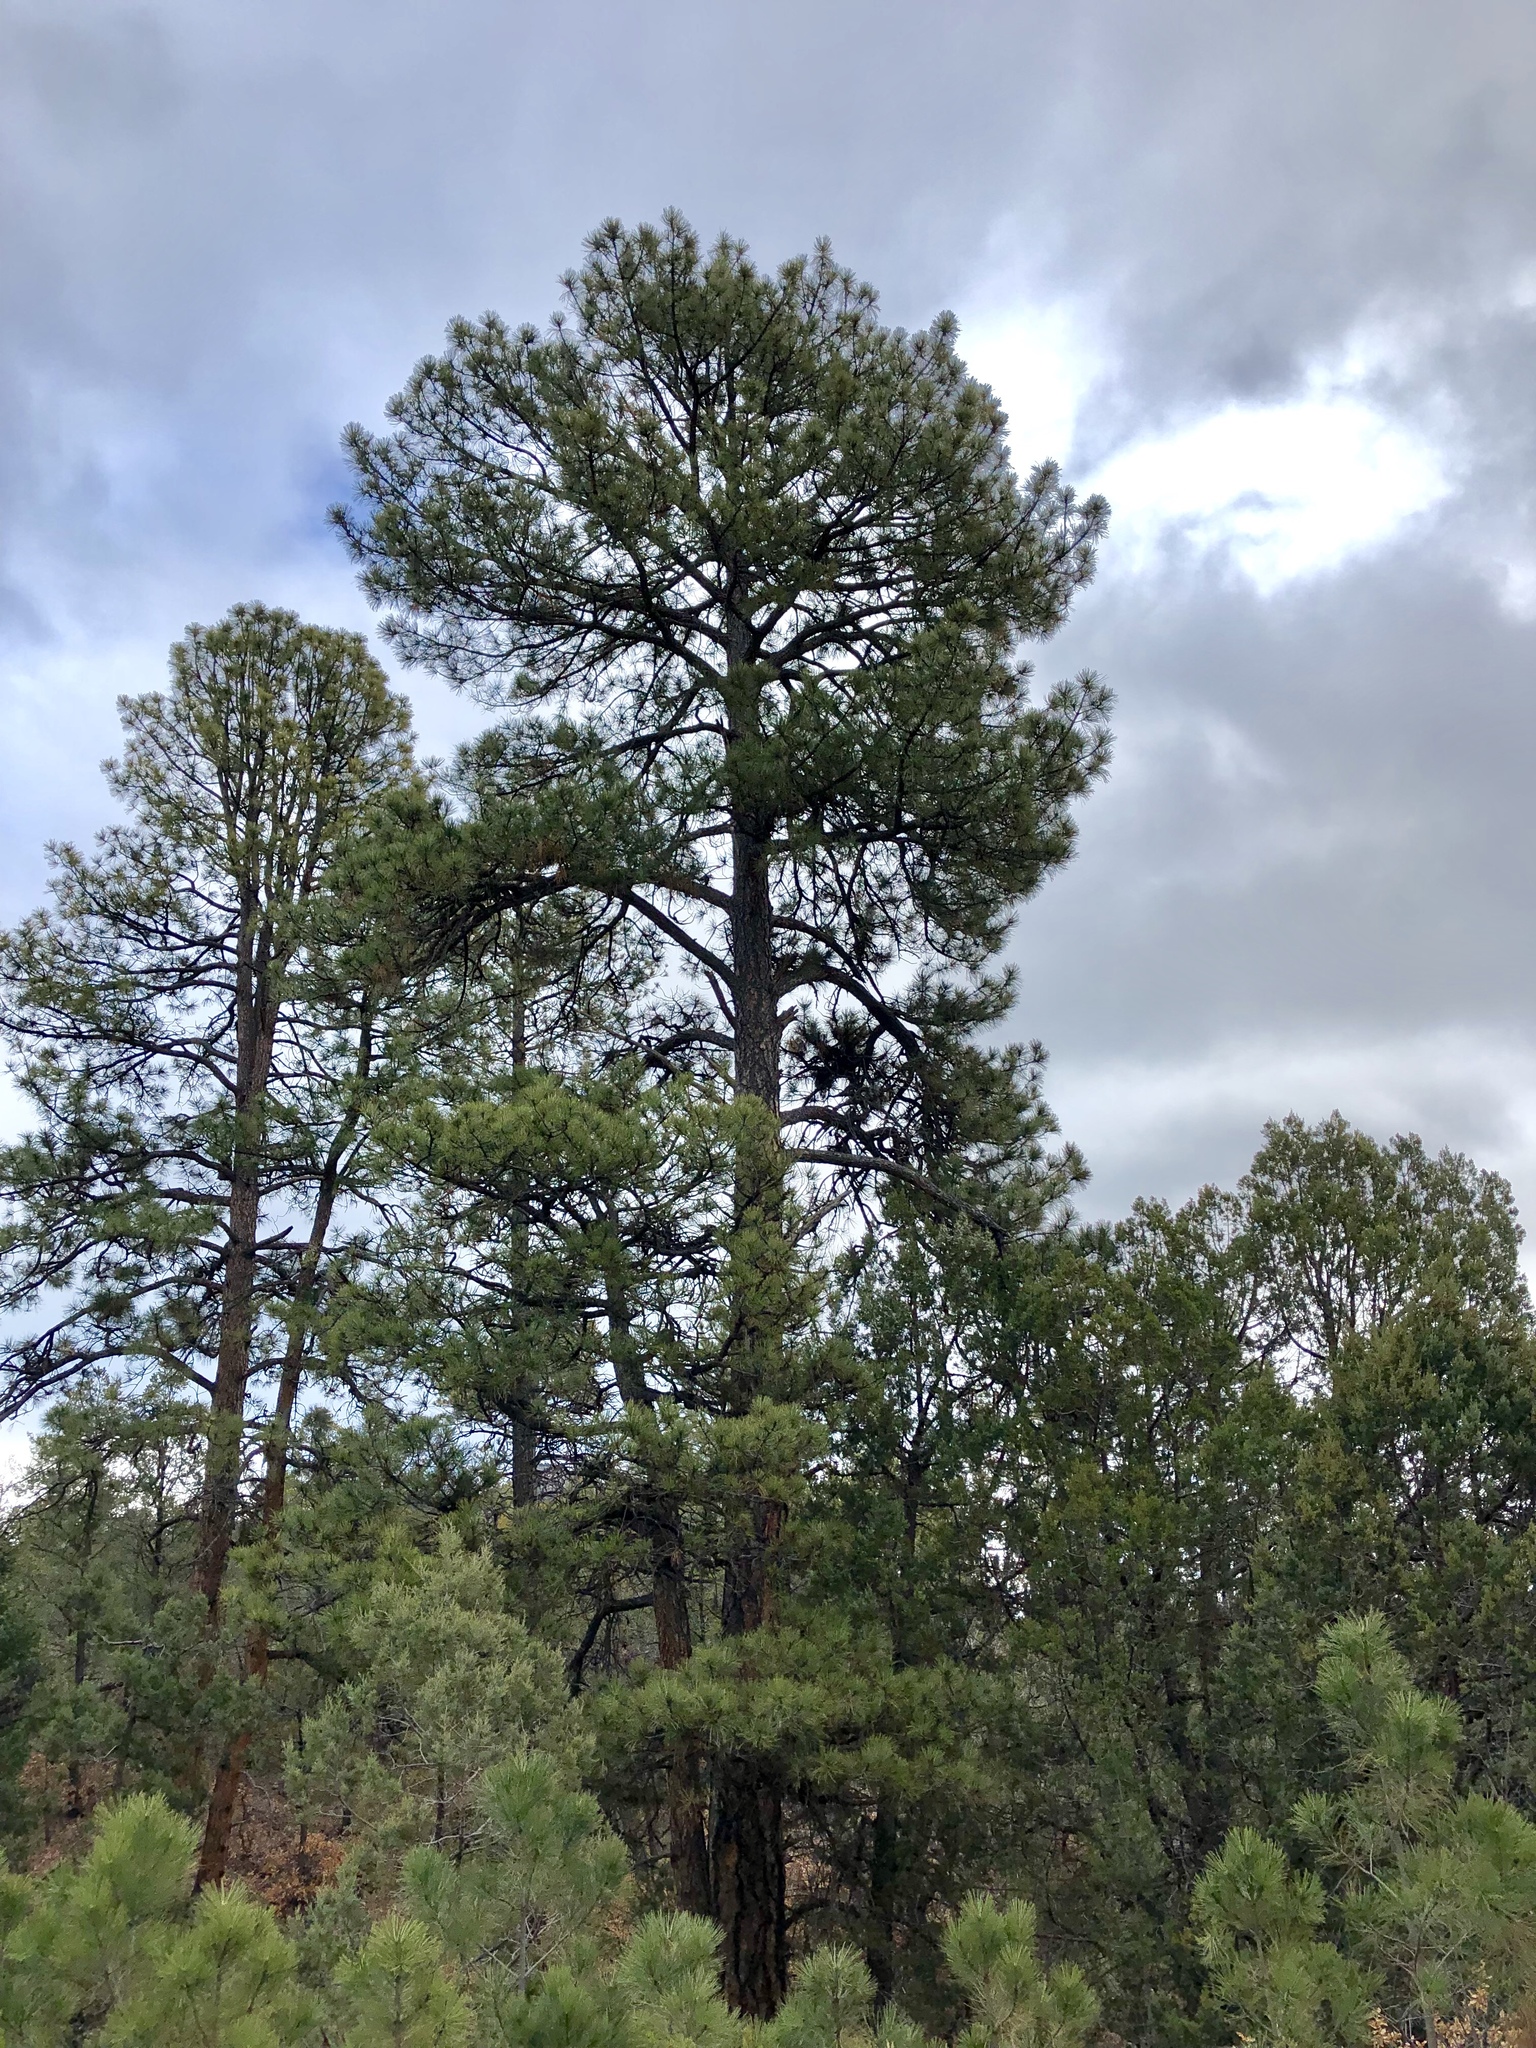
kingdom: Plantae
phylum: Tracheophyta
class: Pinopsida
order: Pinales
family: Pinaceae
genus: Pinus
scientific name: Pinus ponderosa
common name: Western yellow-pine
